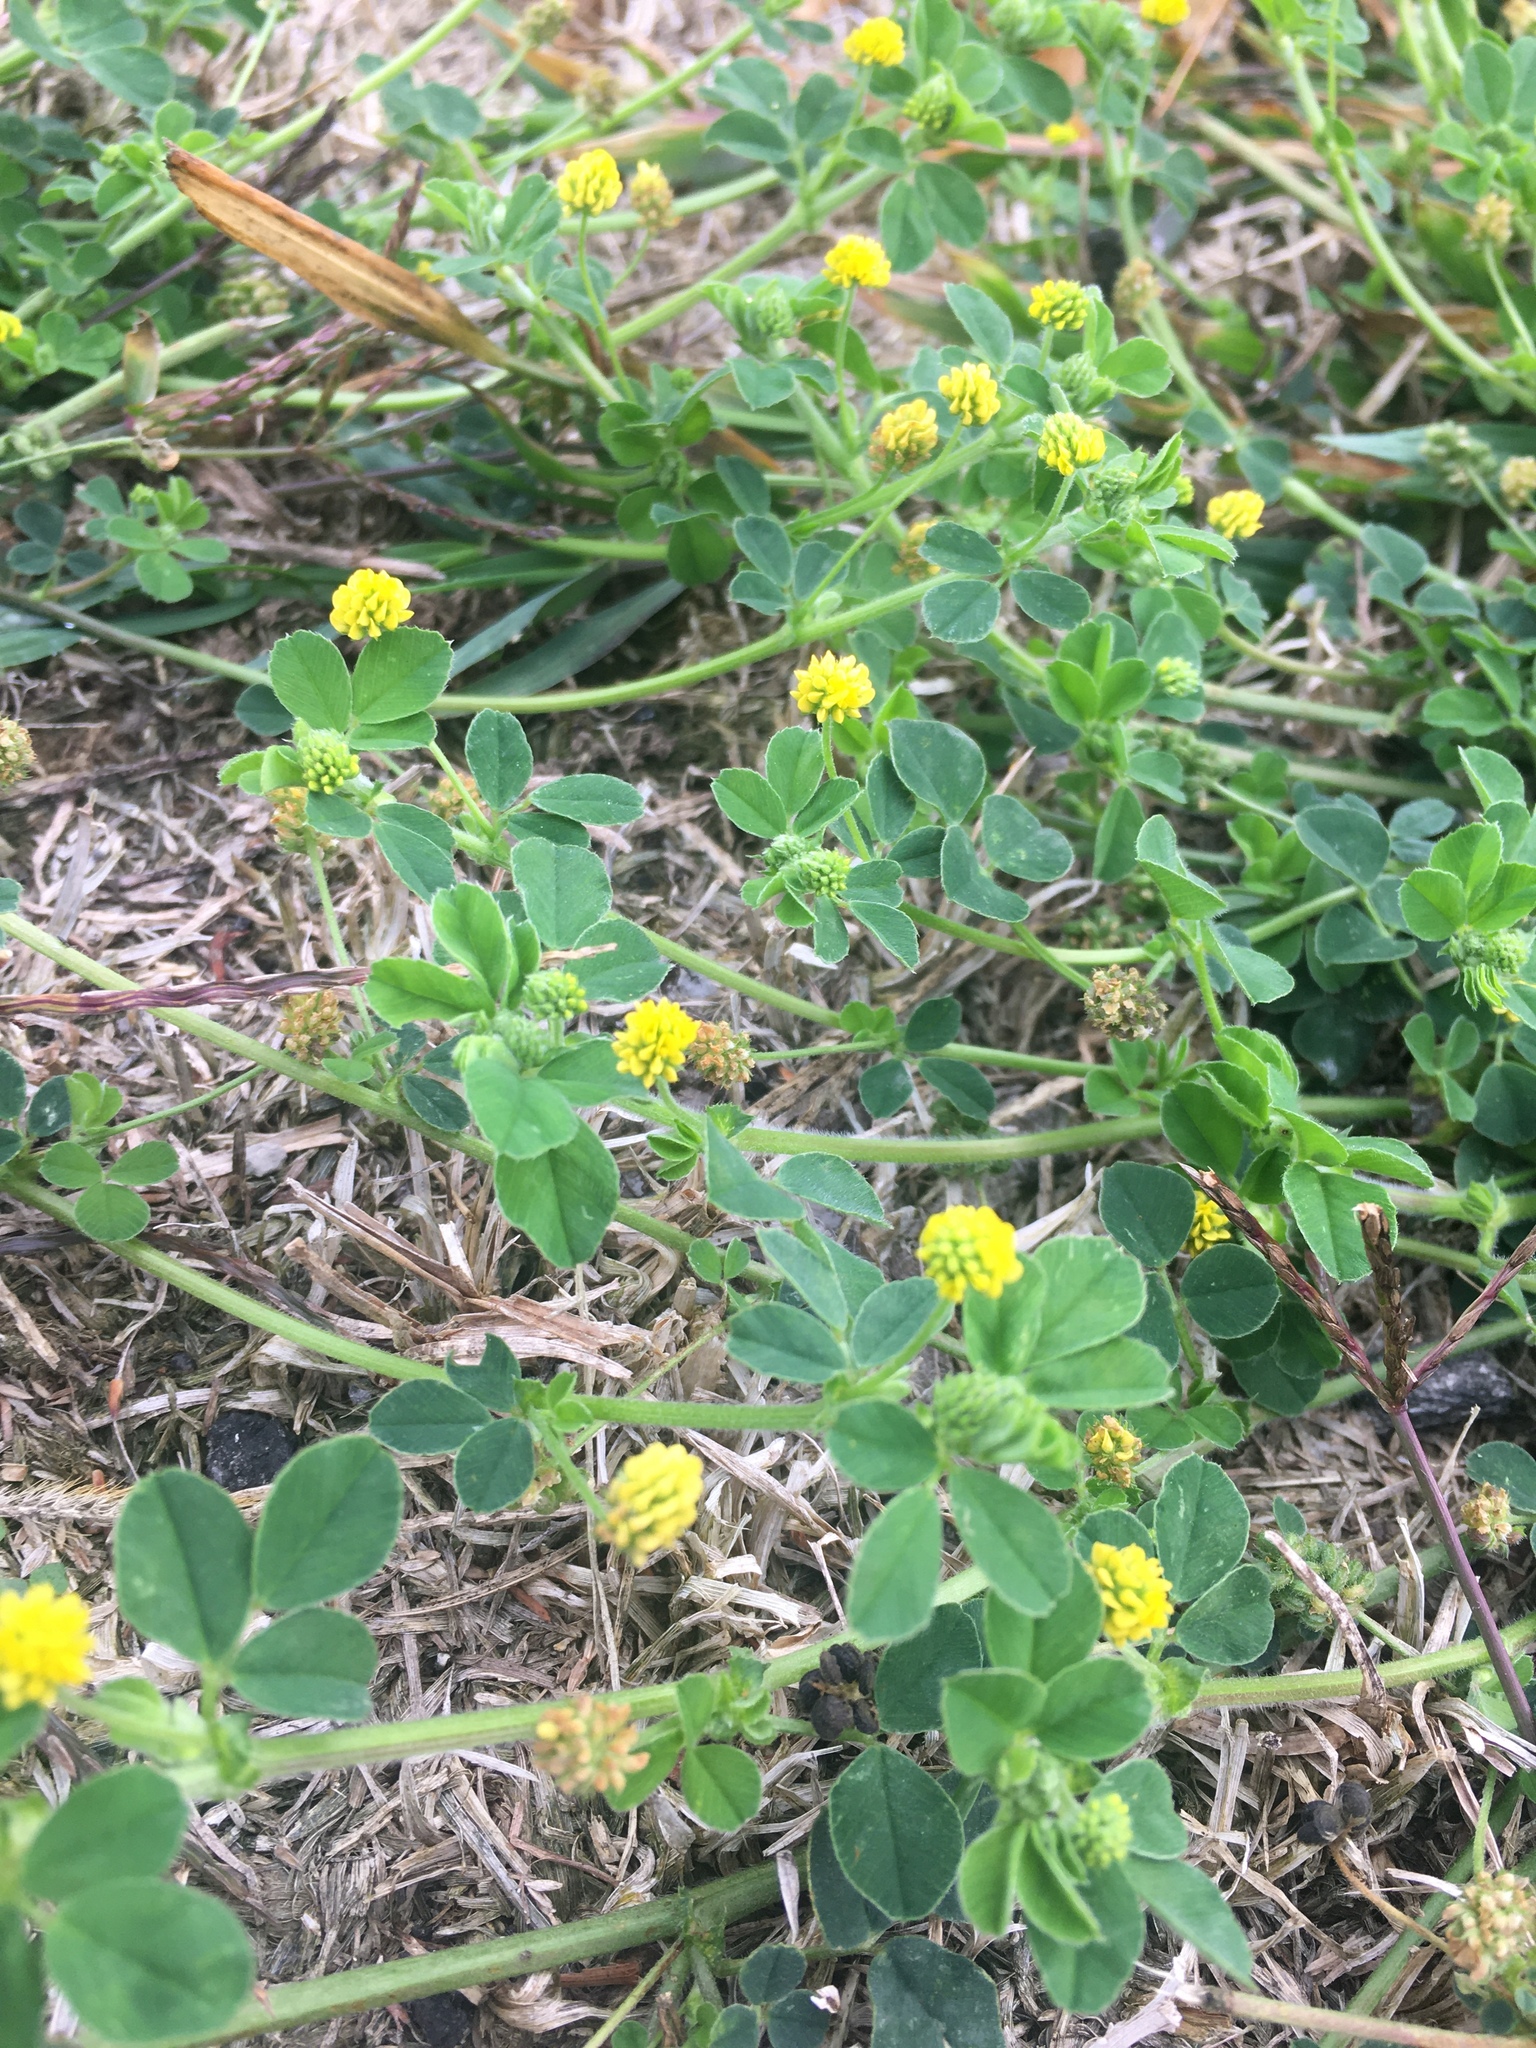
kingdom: Plantae
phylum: Tracheophyta
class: Magnoliopsida
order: Fabales
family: Fabaceae
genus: Medicago
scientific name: Medicago lupulina
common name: Black medick
